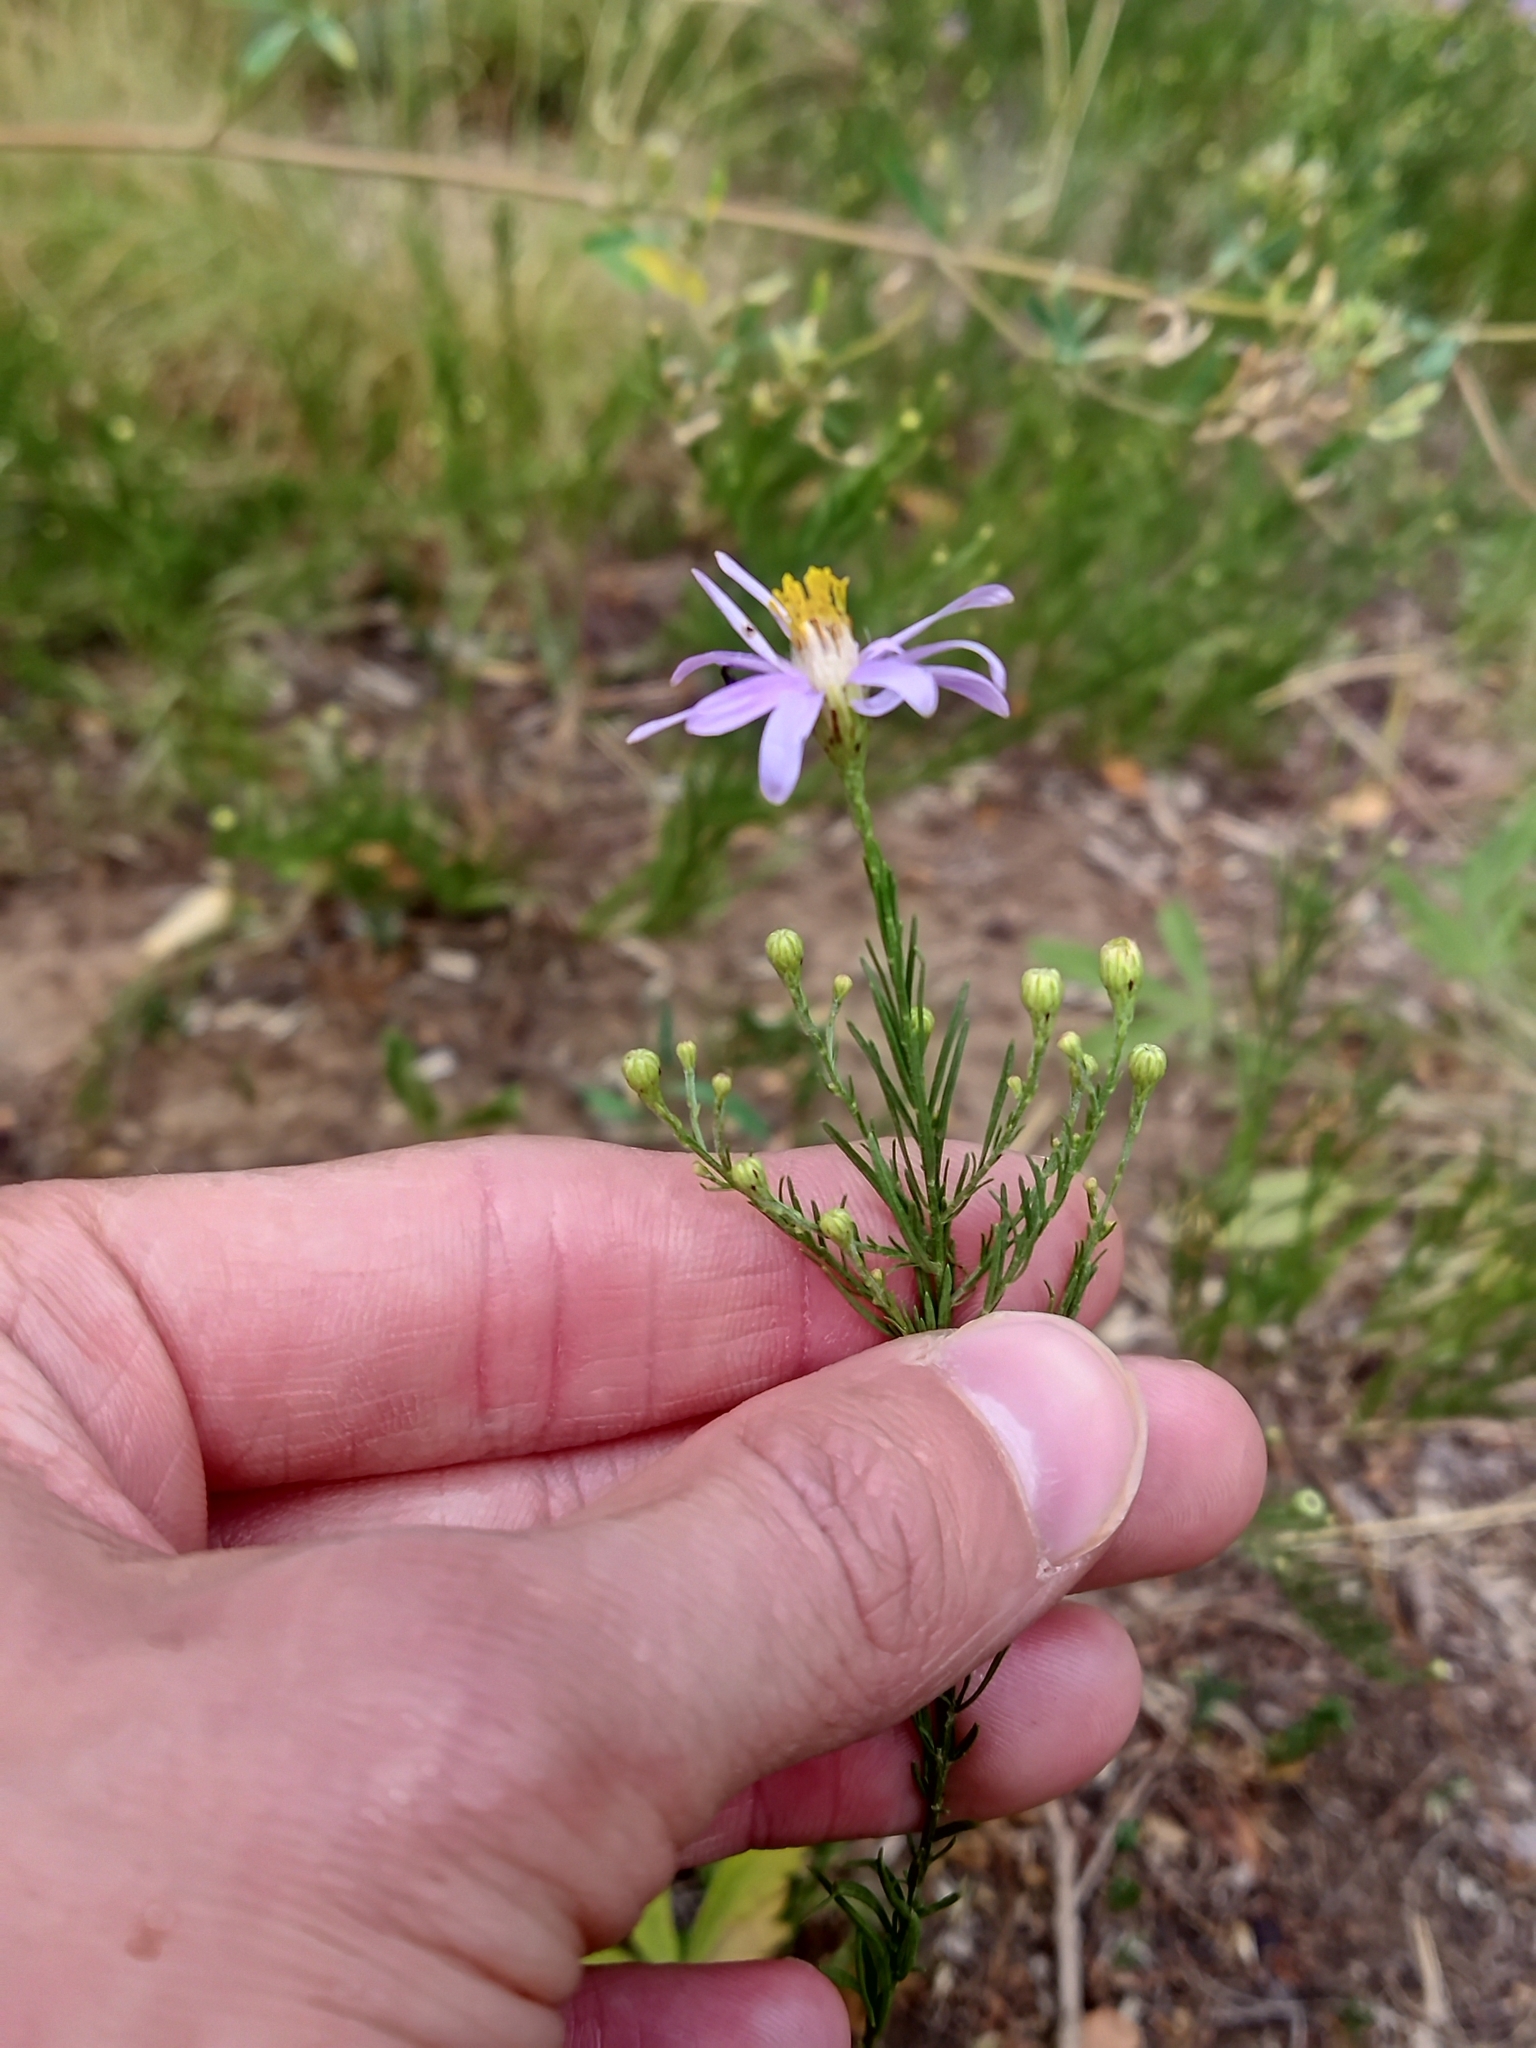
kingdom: Plantae
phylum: Tracheophyta
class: Magnoliopsida
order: Asterales
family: Asteraceae
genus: Galatella
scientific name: Galatella angustissima
